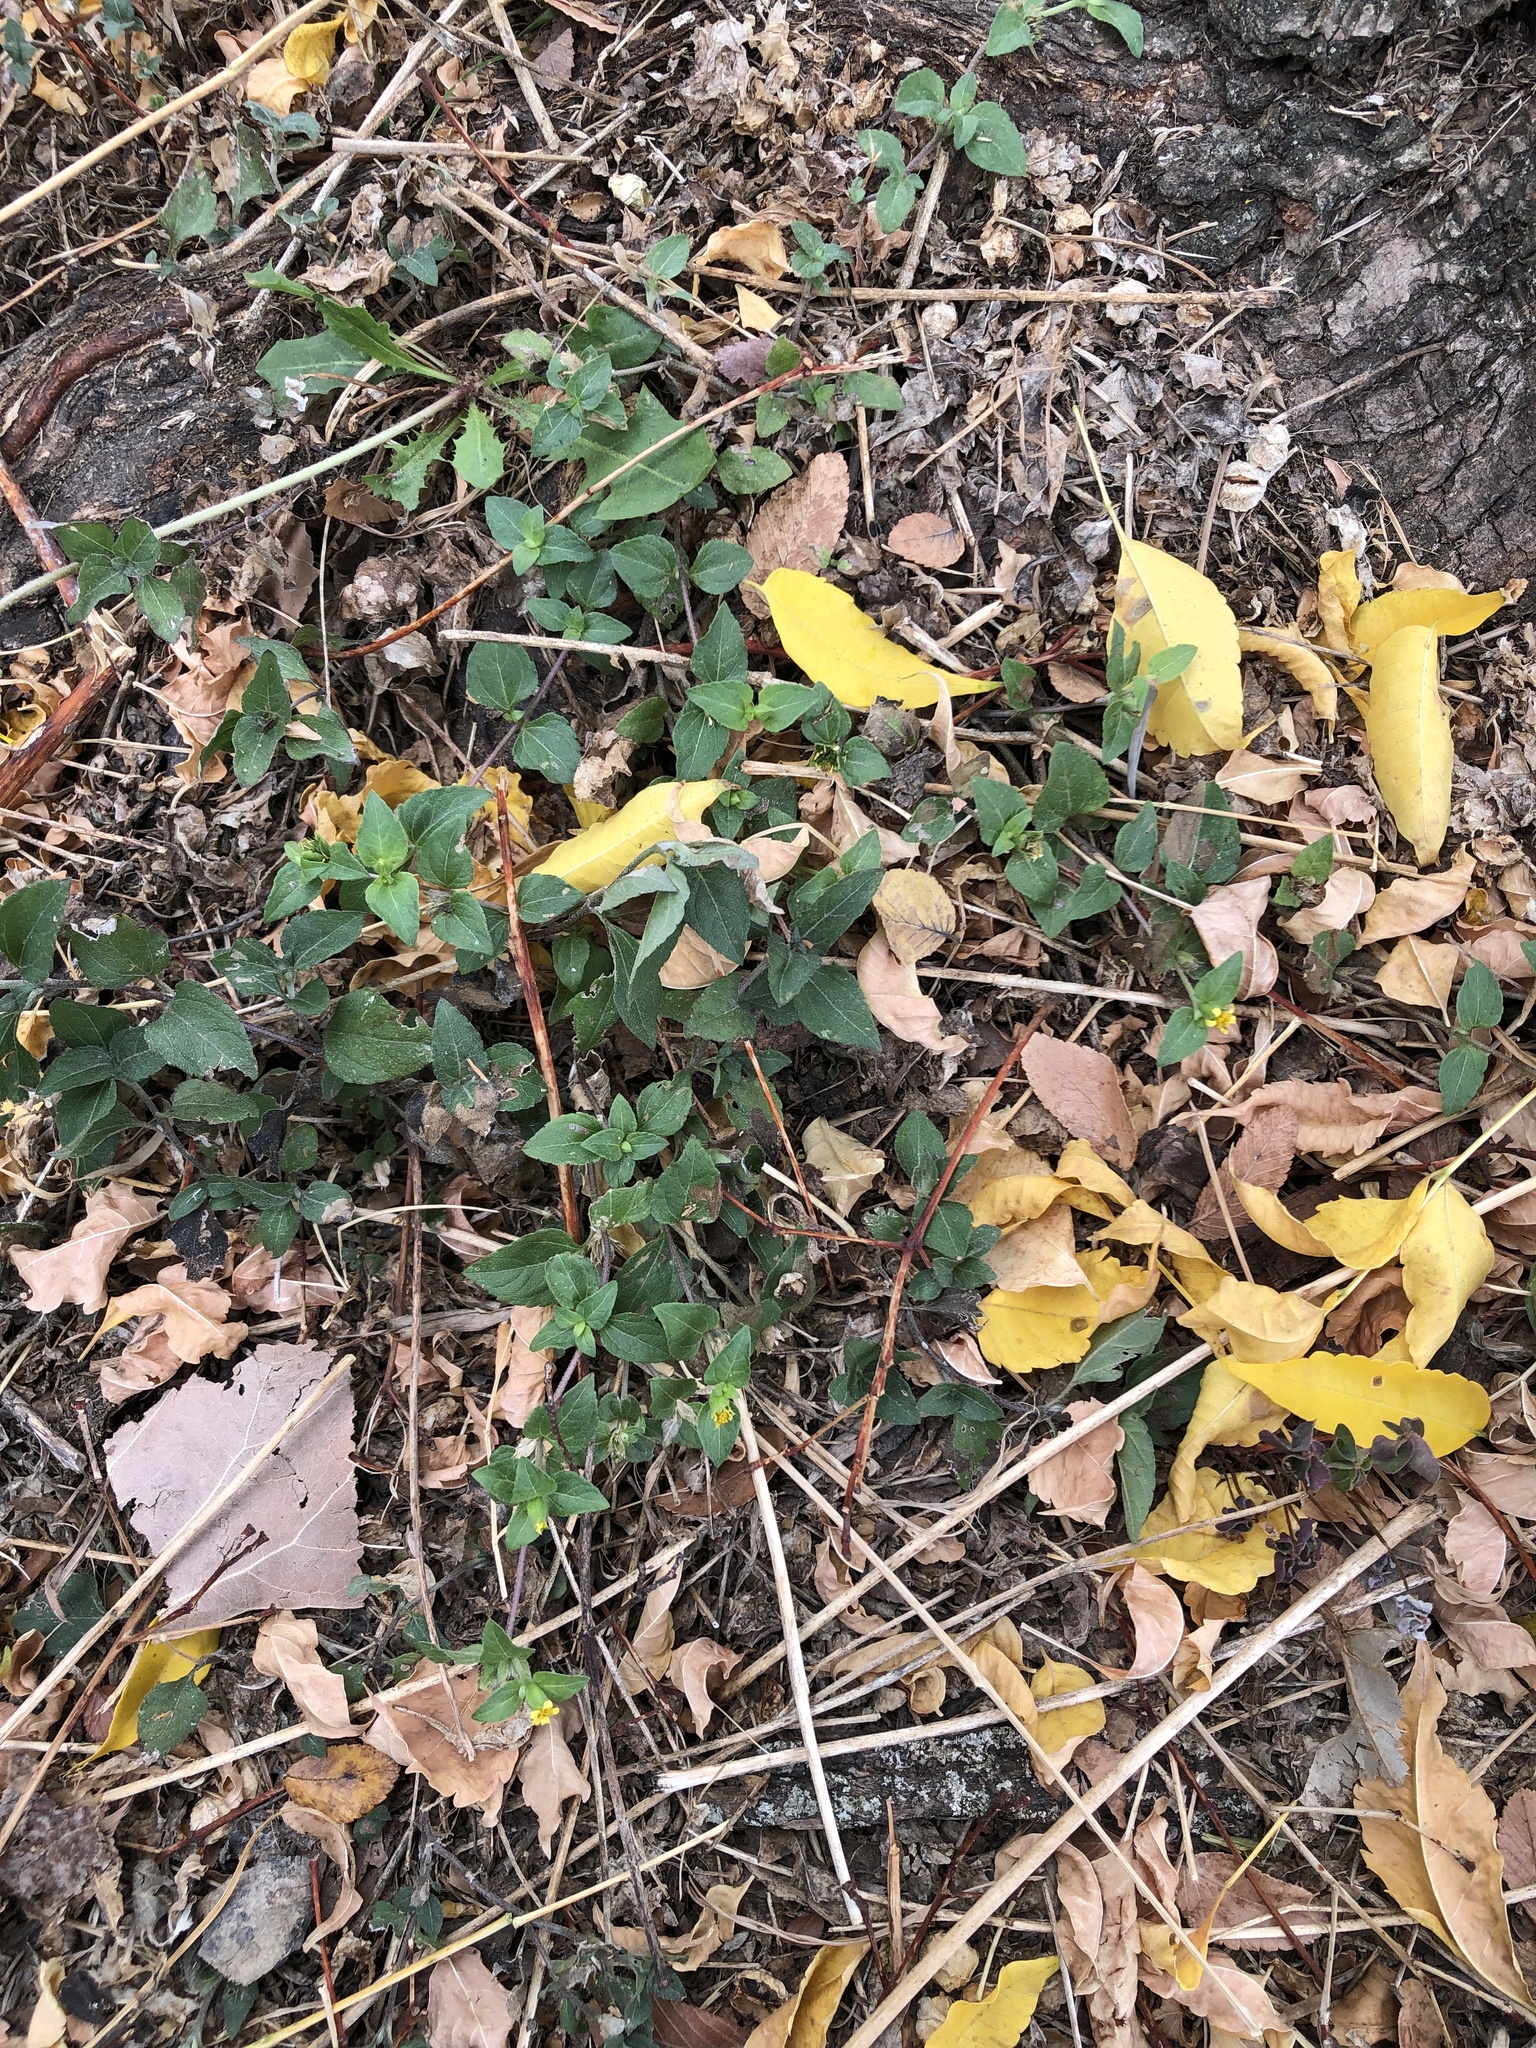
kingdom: Plantae
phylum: Tracheophyta
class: Magnoliopsida
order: Asterales
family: Asteraceae
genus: Calyptocarpus
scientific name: Calyptocarpus vialis
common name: Straggler daisy
